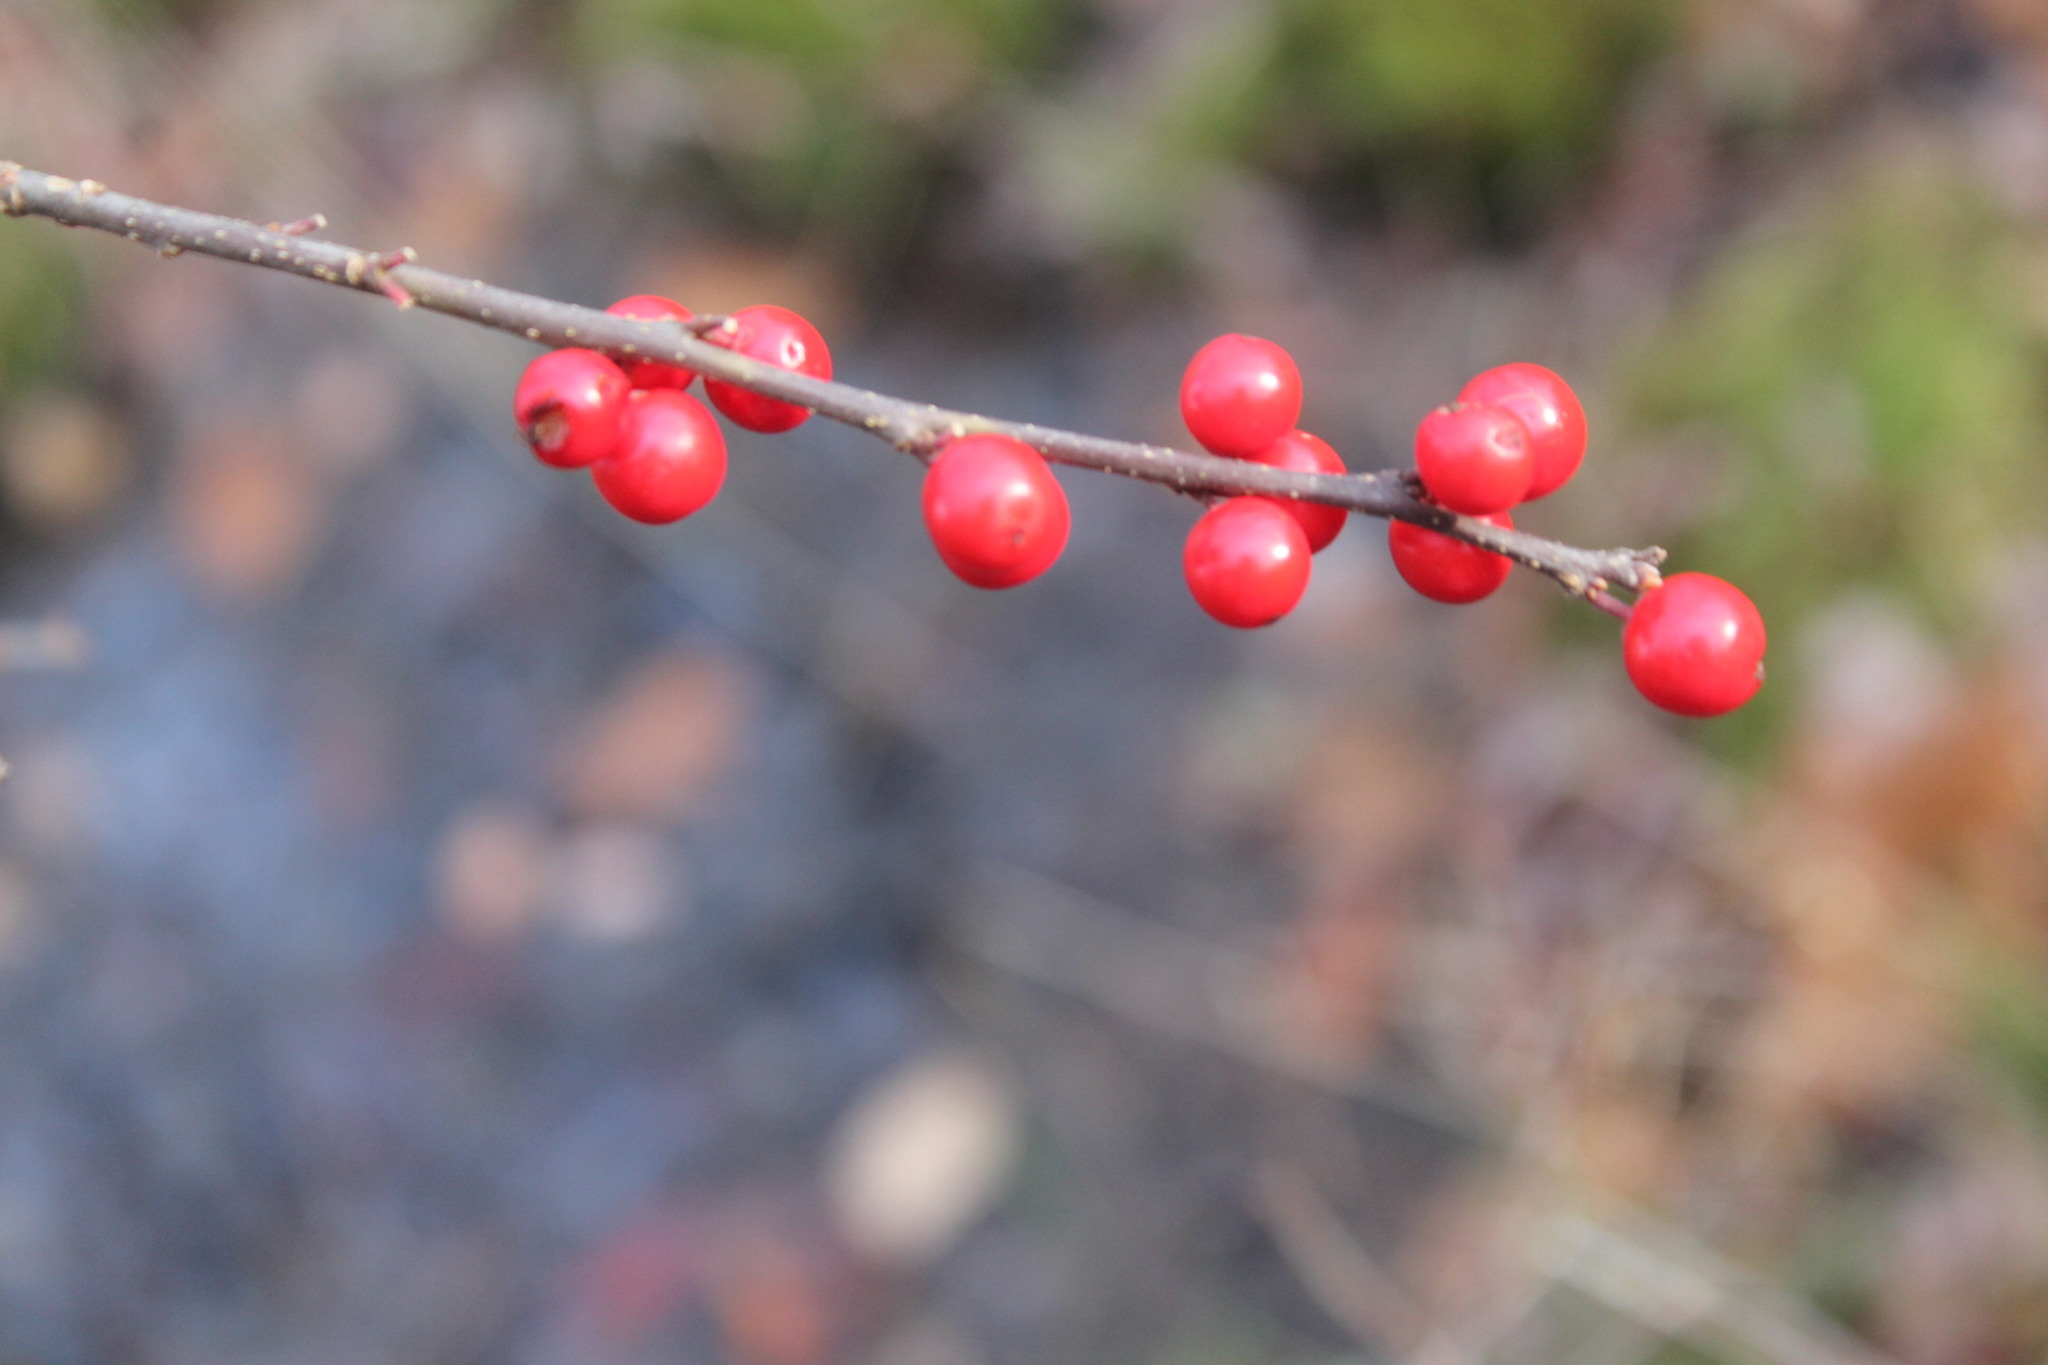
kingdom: Plantae
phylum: Tracheophyta
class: Magnoliopsida
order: Aquifoliales
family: Aquifoliaceae
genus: Ilex
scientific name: Ilex verticillata
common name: Virginia winterberry
